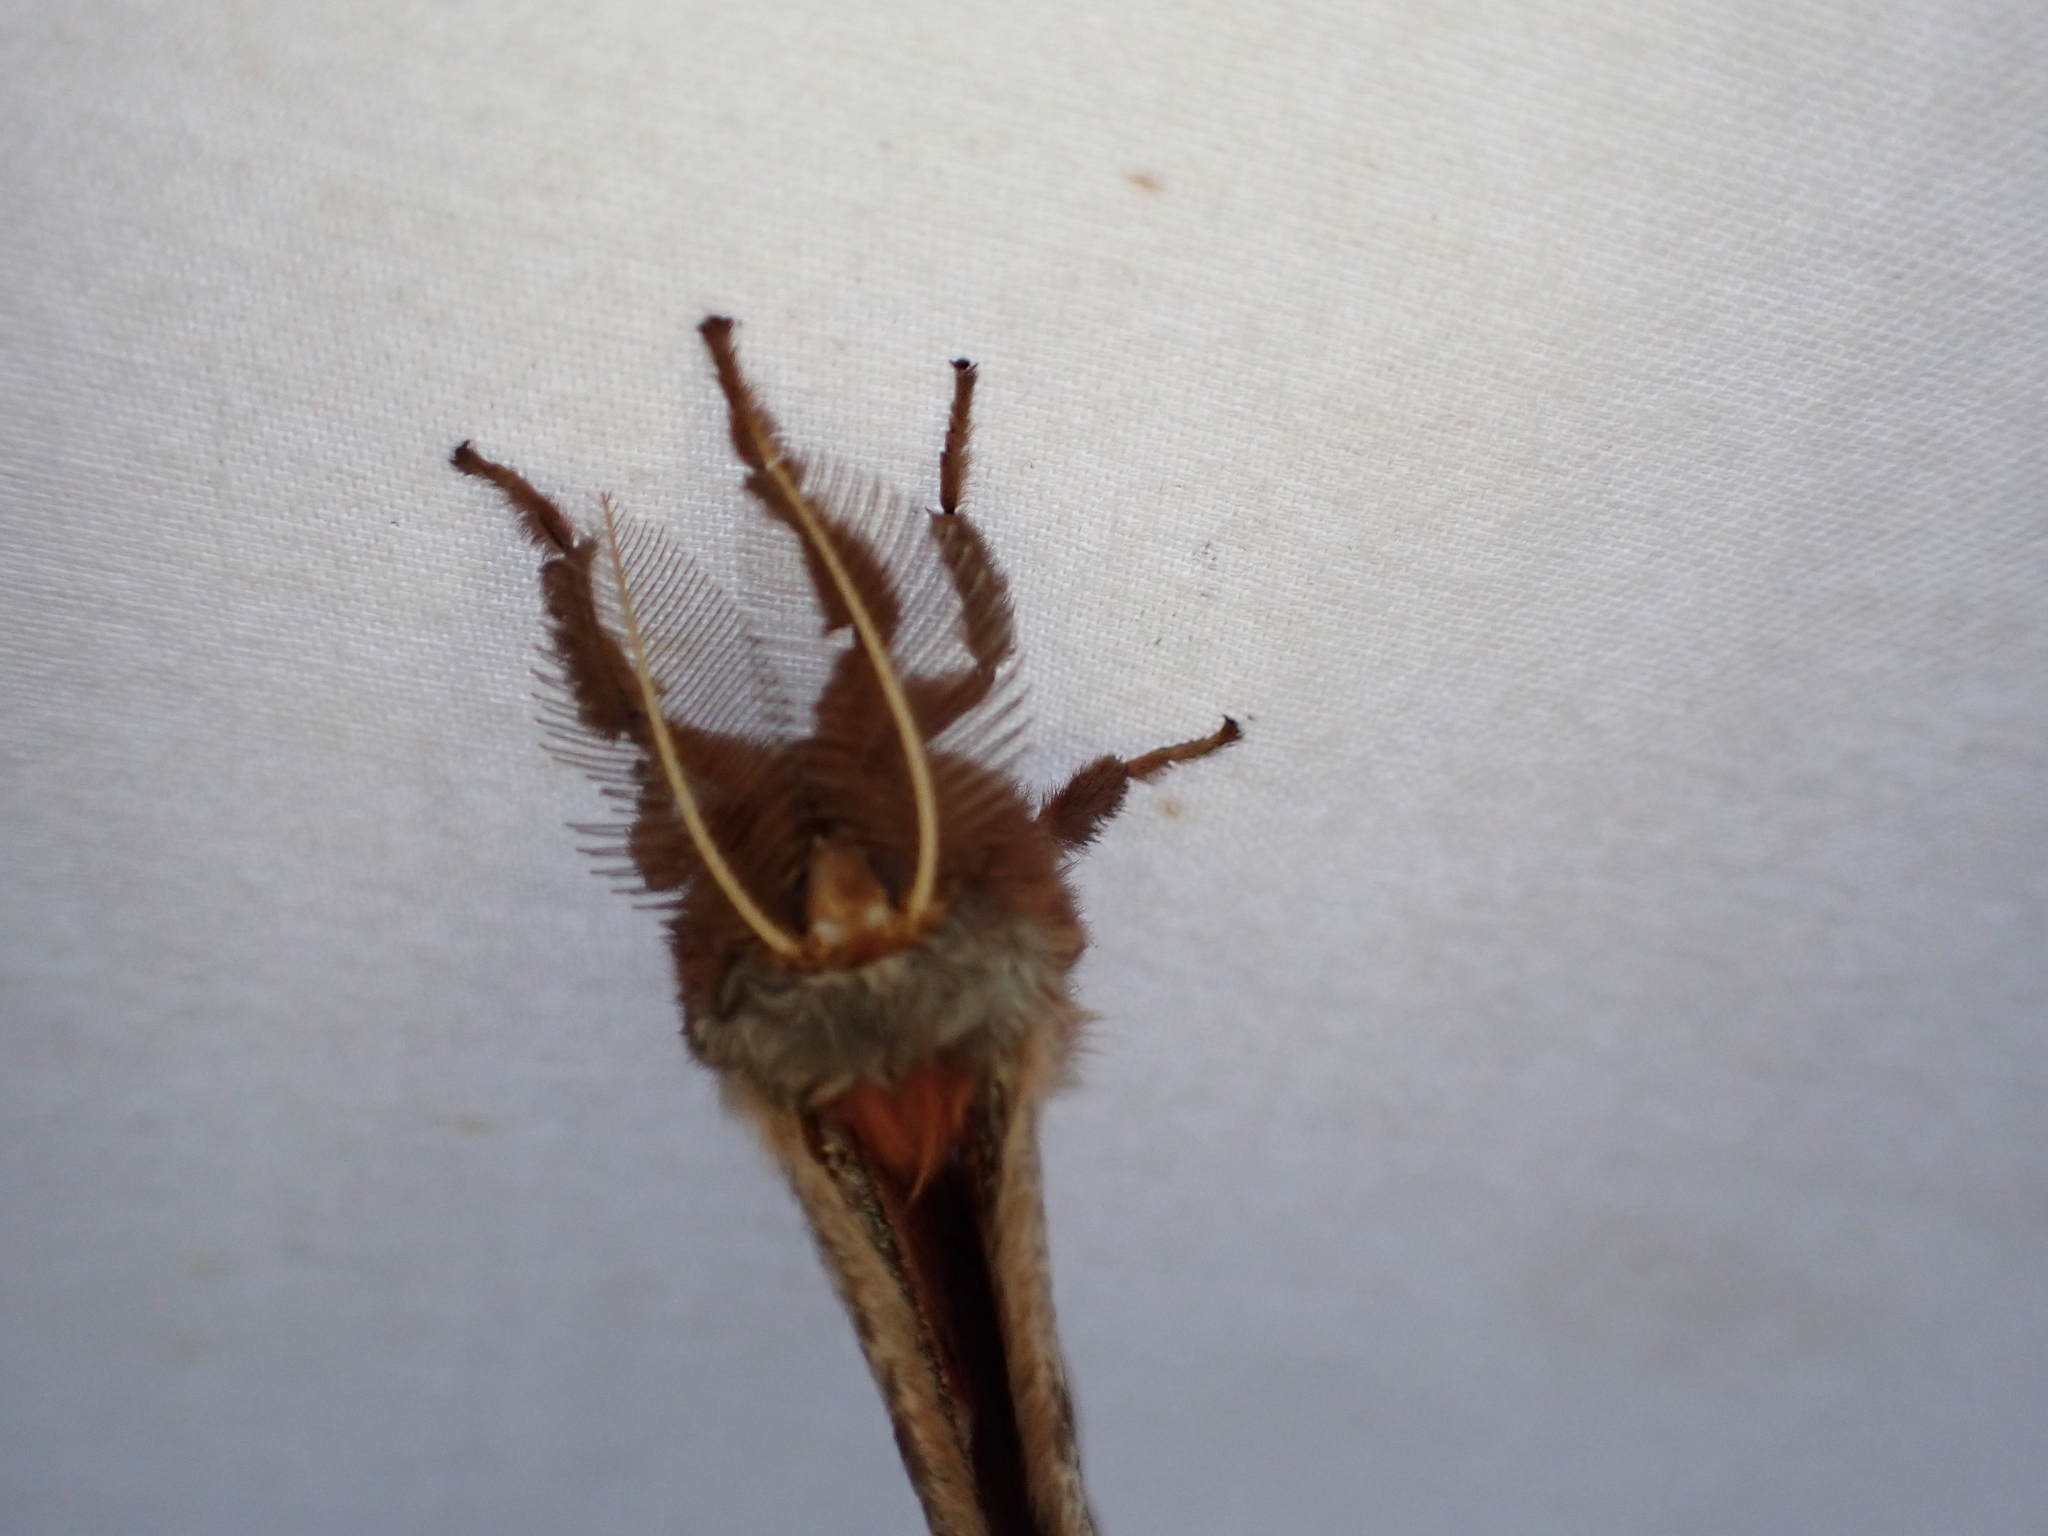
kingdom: Animalia
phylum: Arthropoda
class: Insecta
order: Lepidoptera
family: Saturniidae
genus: Antheraea
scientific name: Antheraea polyphemus
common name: Polyphemus moth
